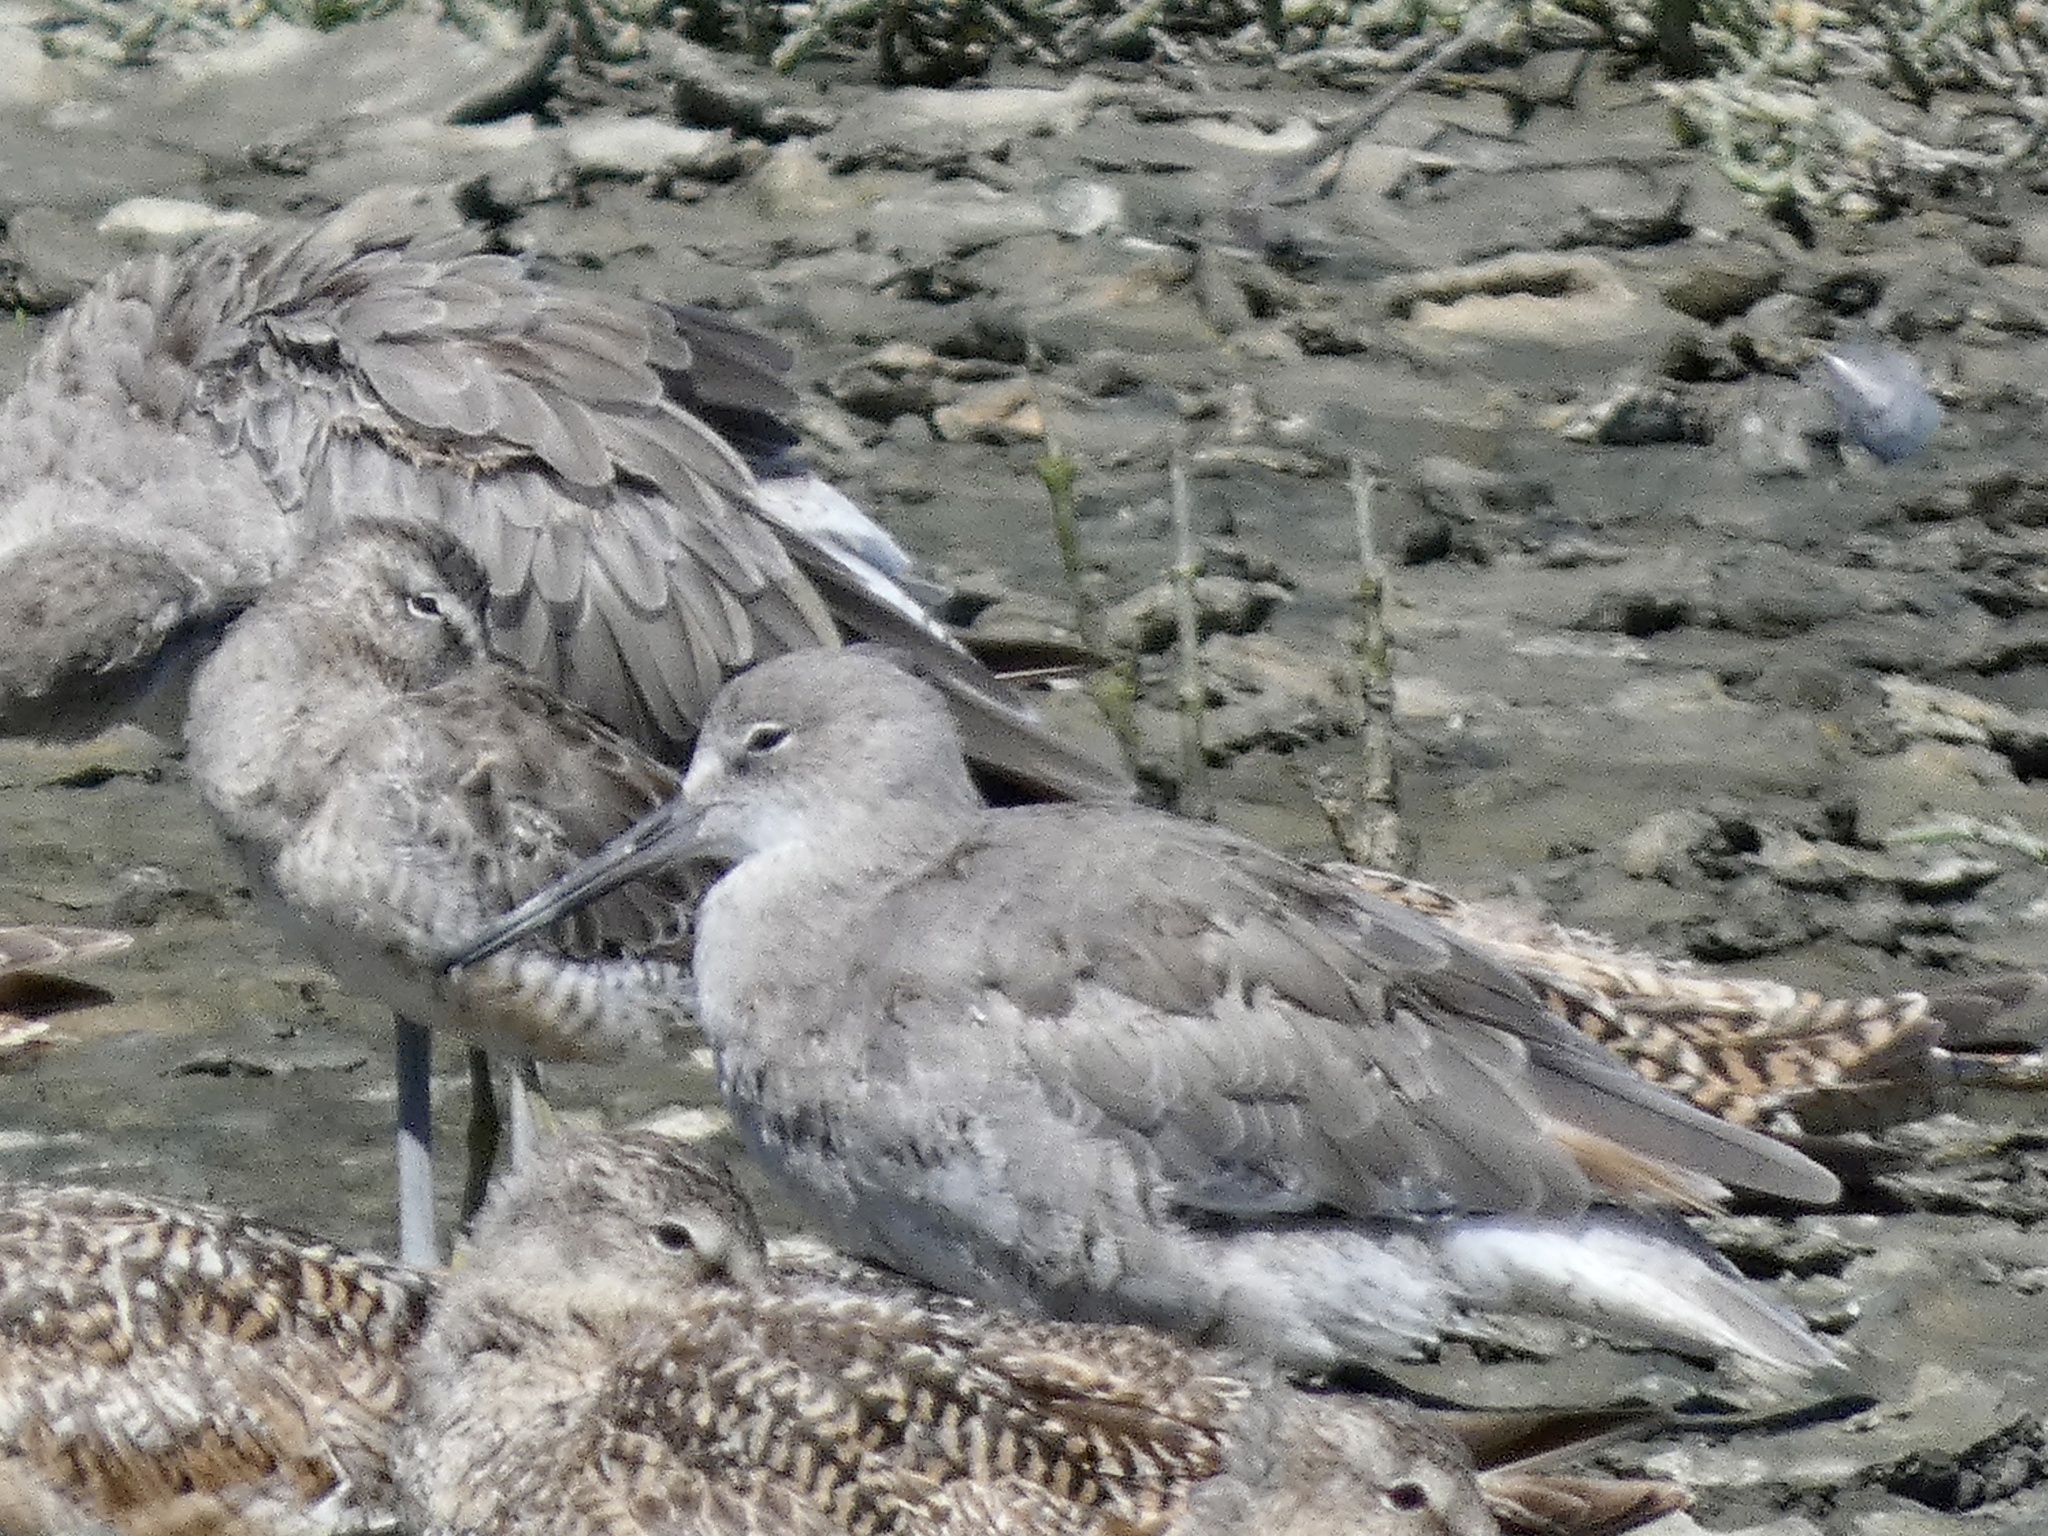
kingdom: Animalia
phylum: Chordata
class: Aves
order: Charadriiformes
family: Scolopacidae
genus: Tringa
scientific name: Tringa semipalmata
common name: Willet
